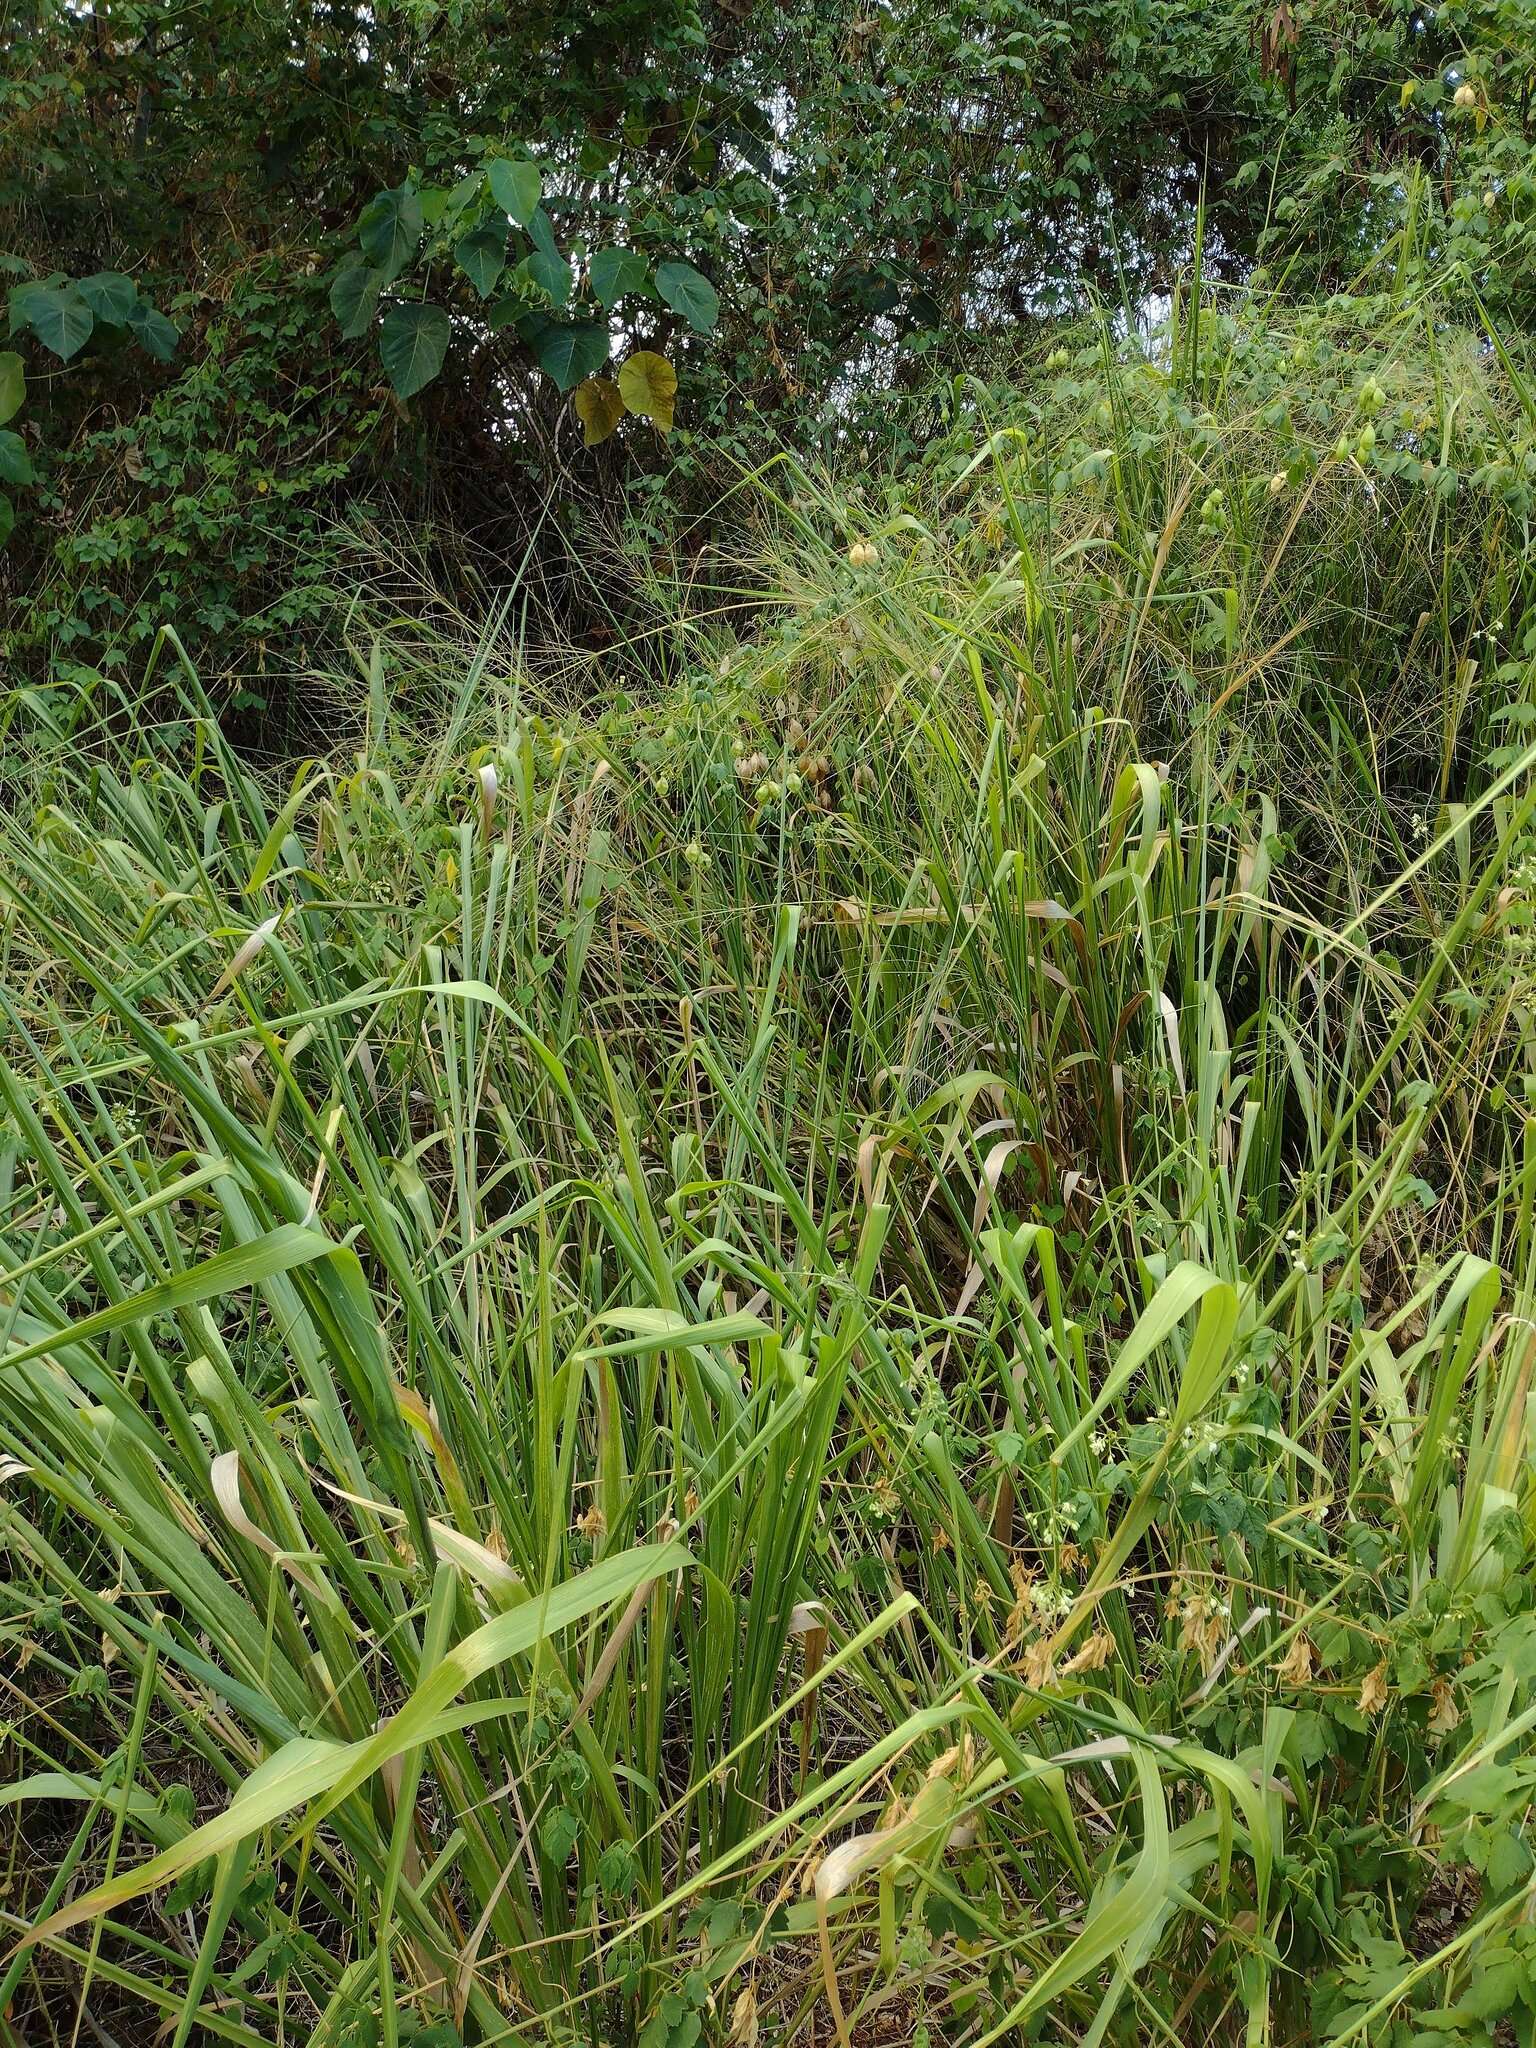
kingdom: Plantae
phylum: Tracheophyta
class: Liliopsida
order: Poales
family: Poaceae
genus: Megathyrsus
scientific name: Megathyrsus maximus
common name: Guineagrass
